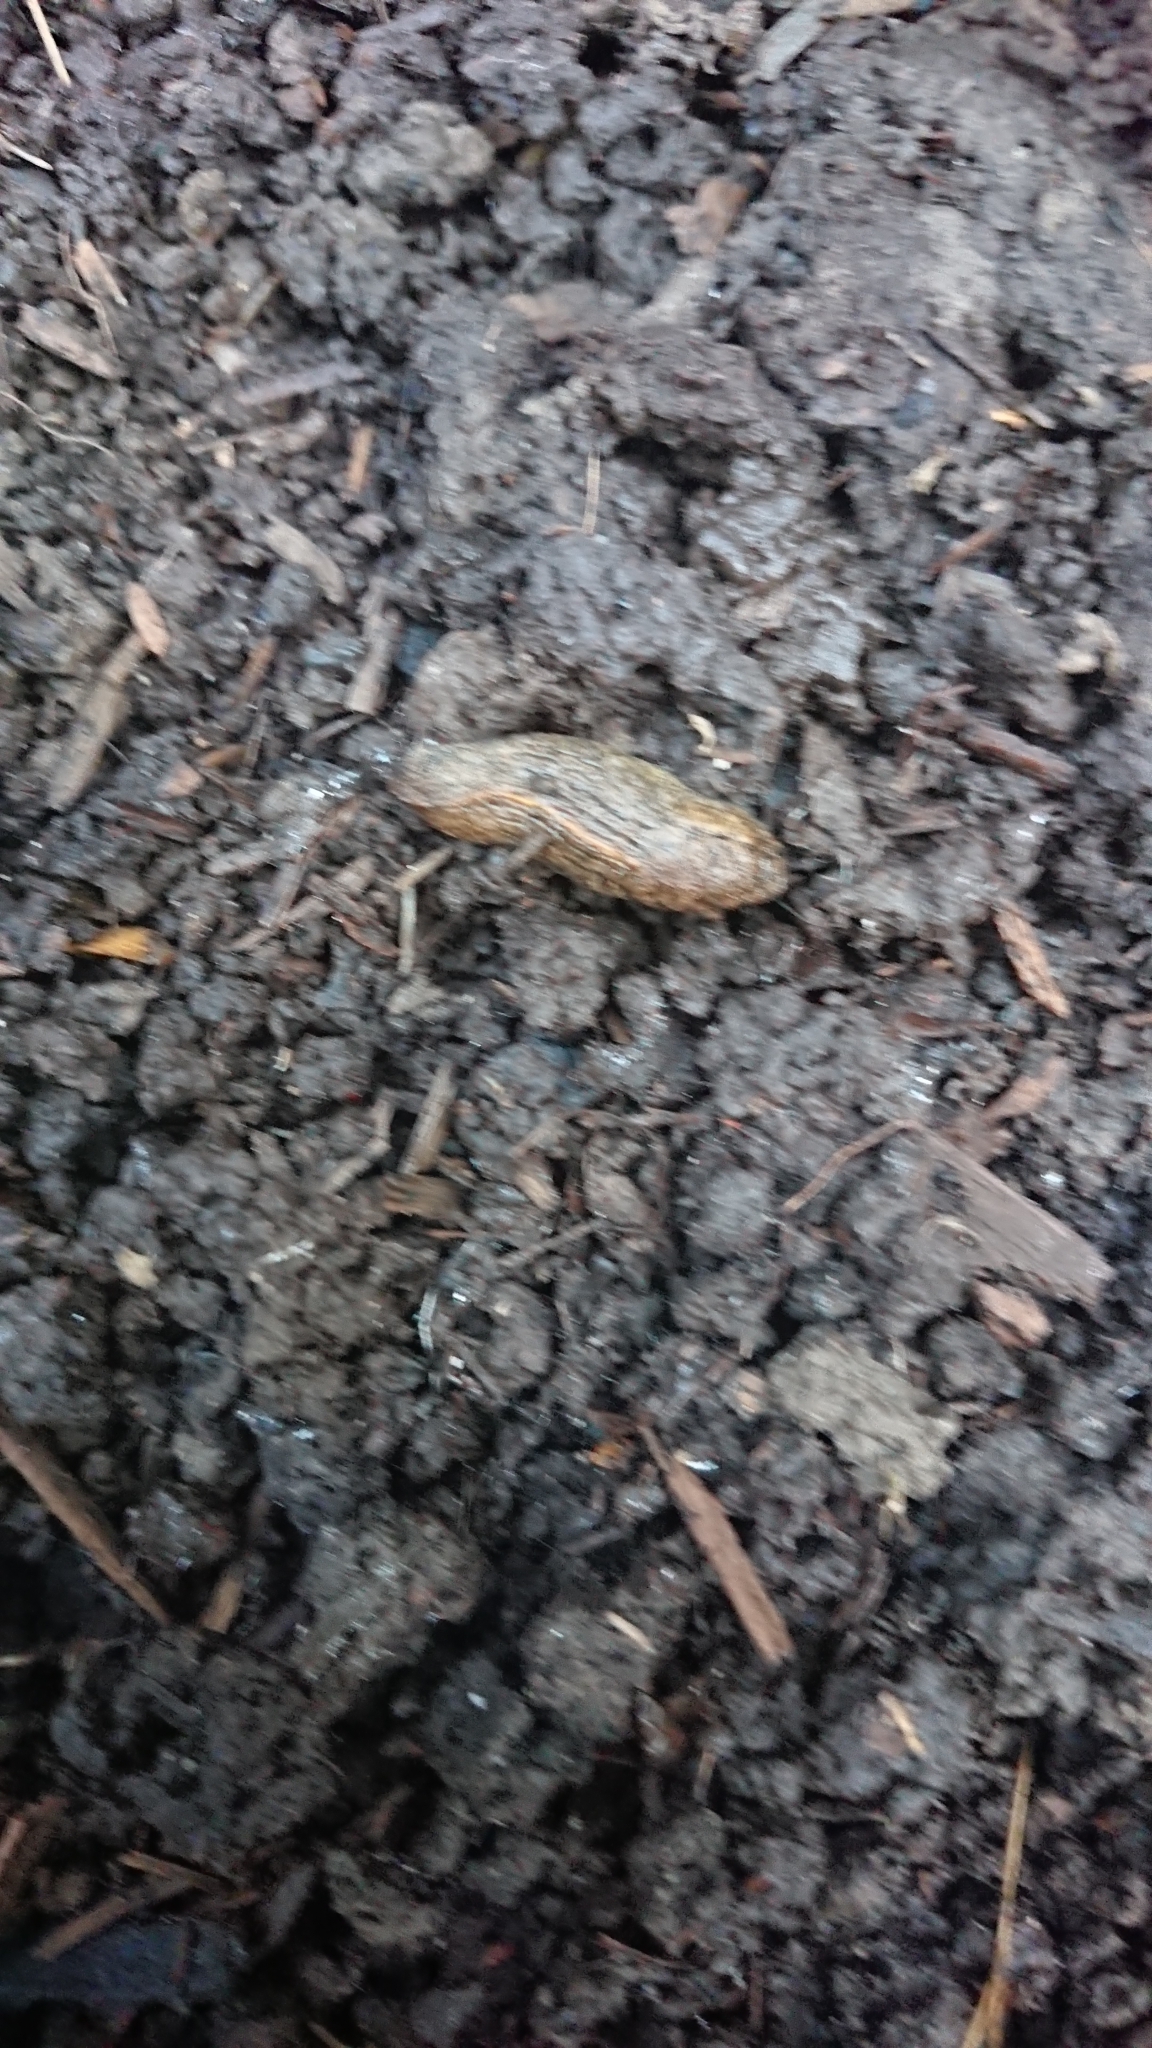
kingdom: Animalia
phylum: Mollusca
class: Gastropoda
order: Stylommatophora
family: Milacidae
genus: Tandonia
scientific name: Tandonia budapestensis
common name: Budapest slug
